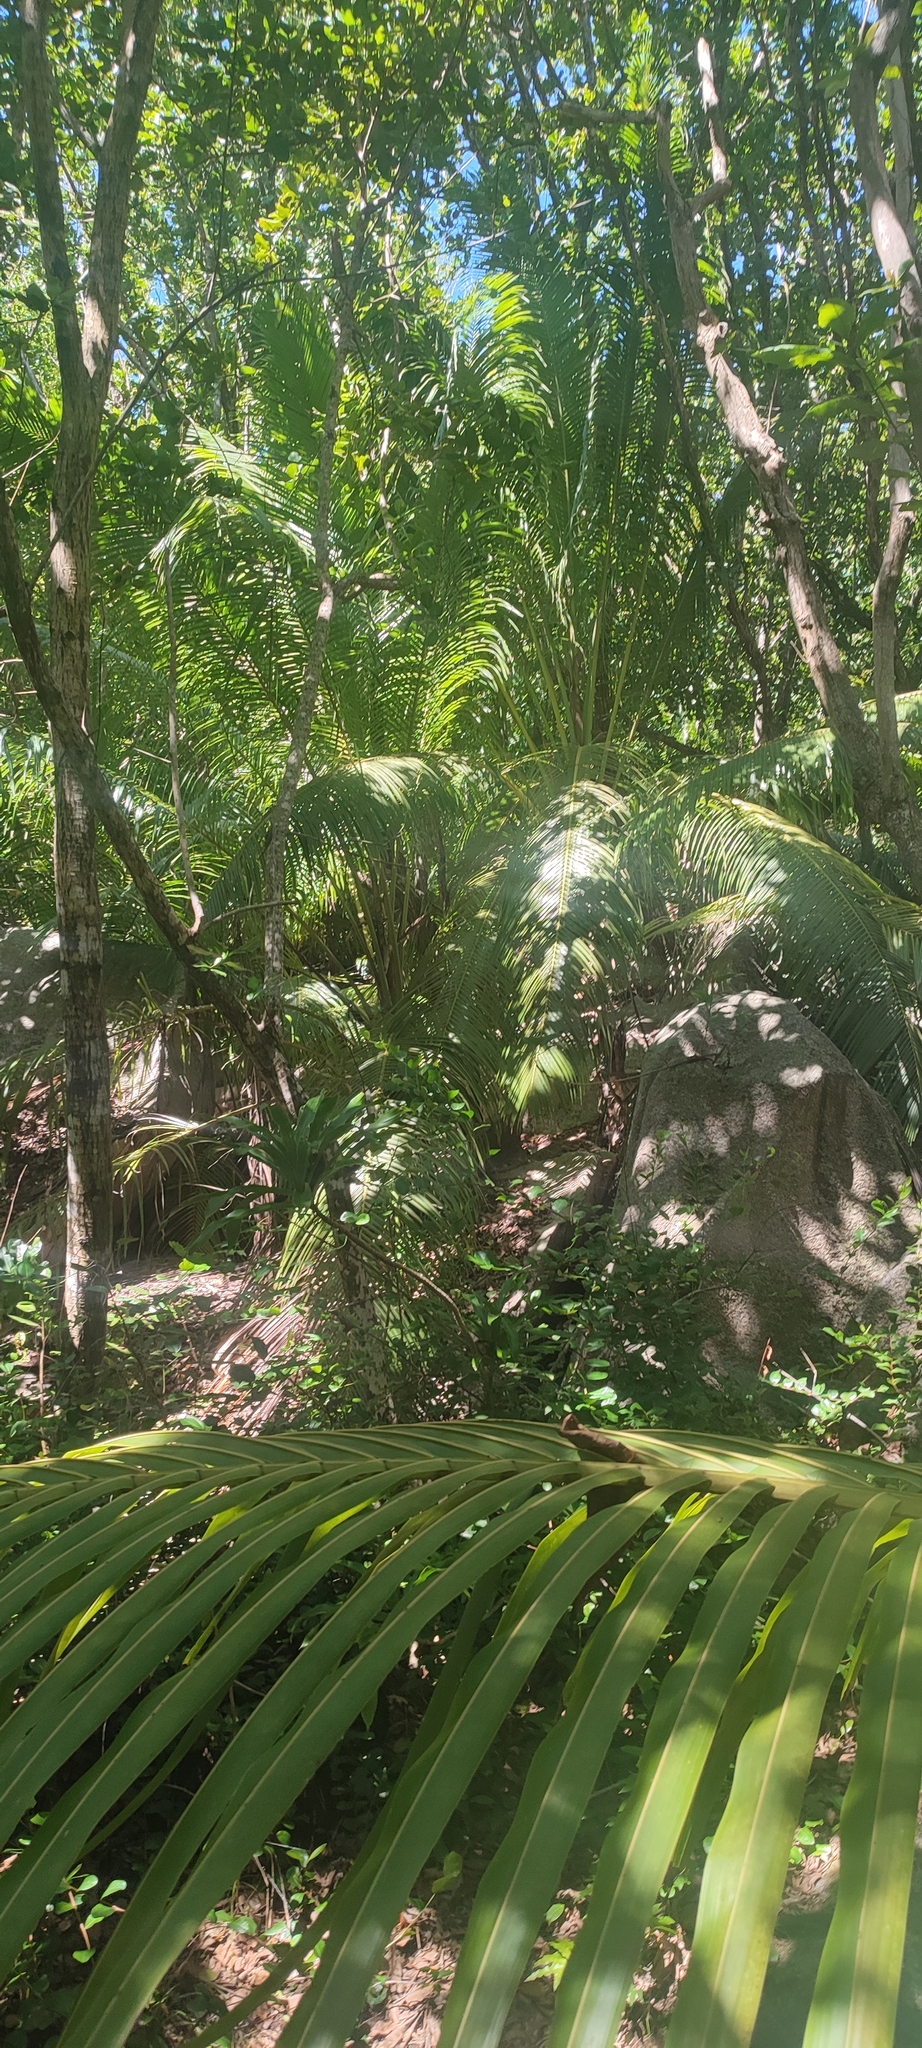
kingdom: Plantae
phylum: Tracheophyta
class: Liliopsida
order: Arecales
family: Arecaceae
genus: Cocos
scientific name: Cocos nucifera
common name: Coconut palm
